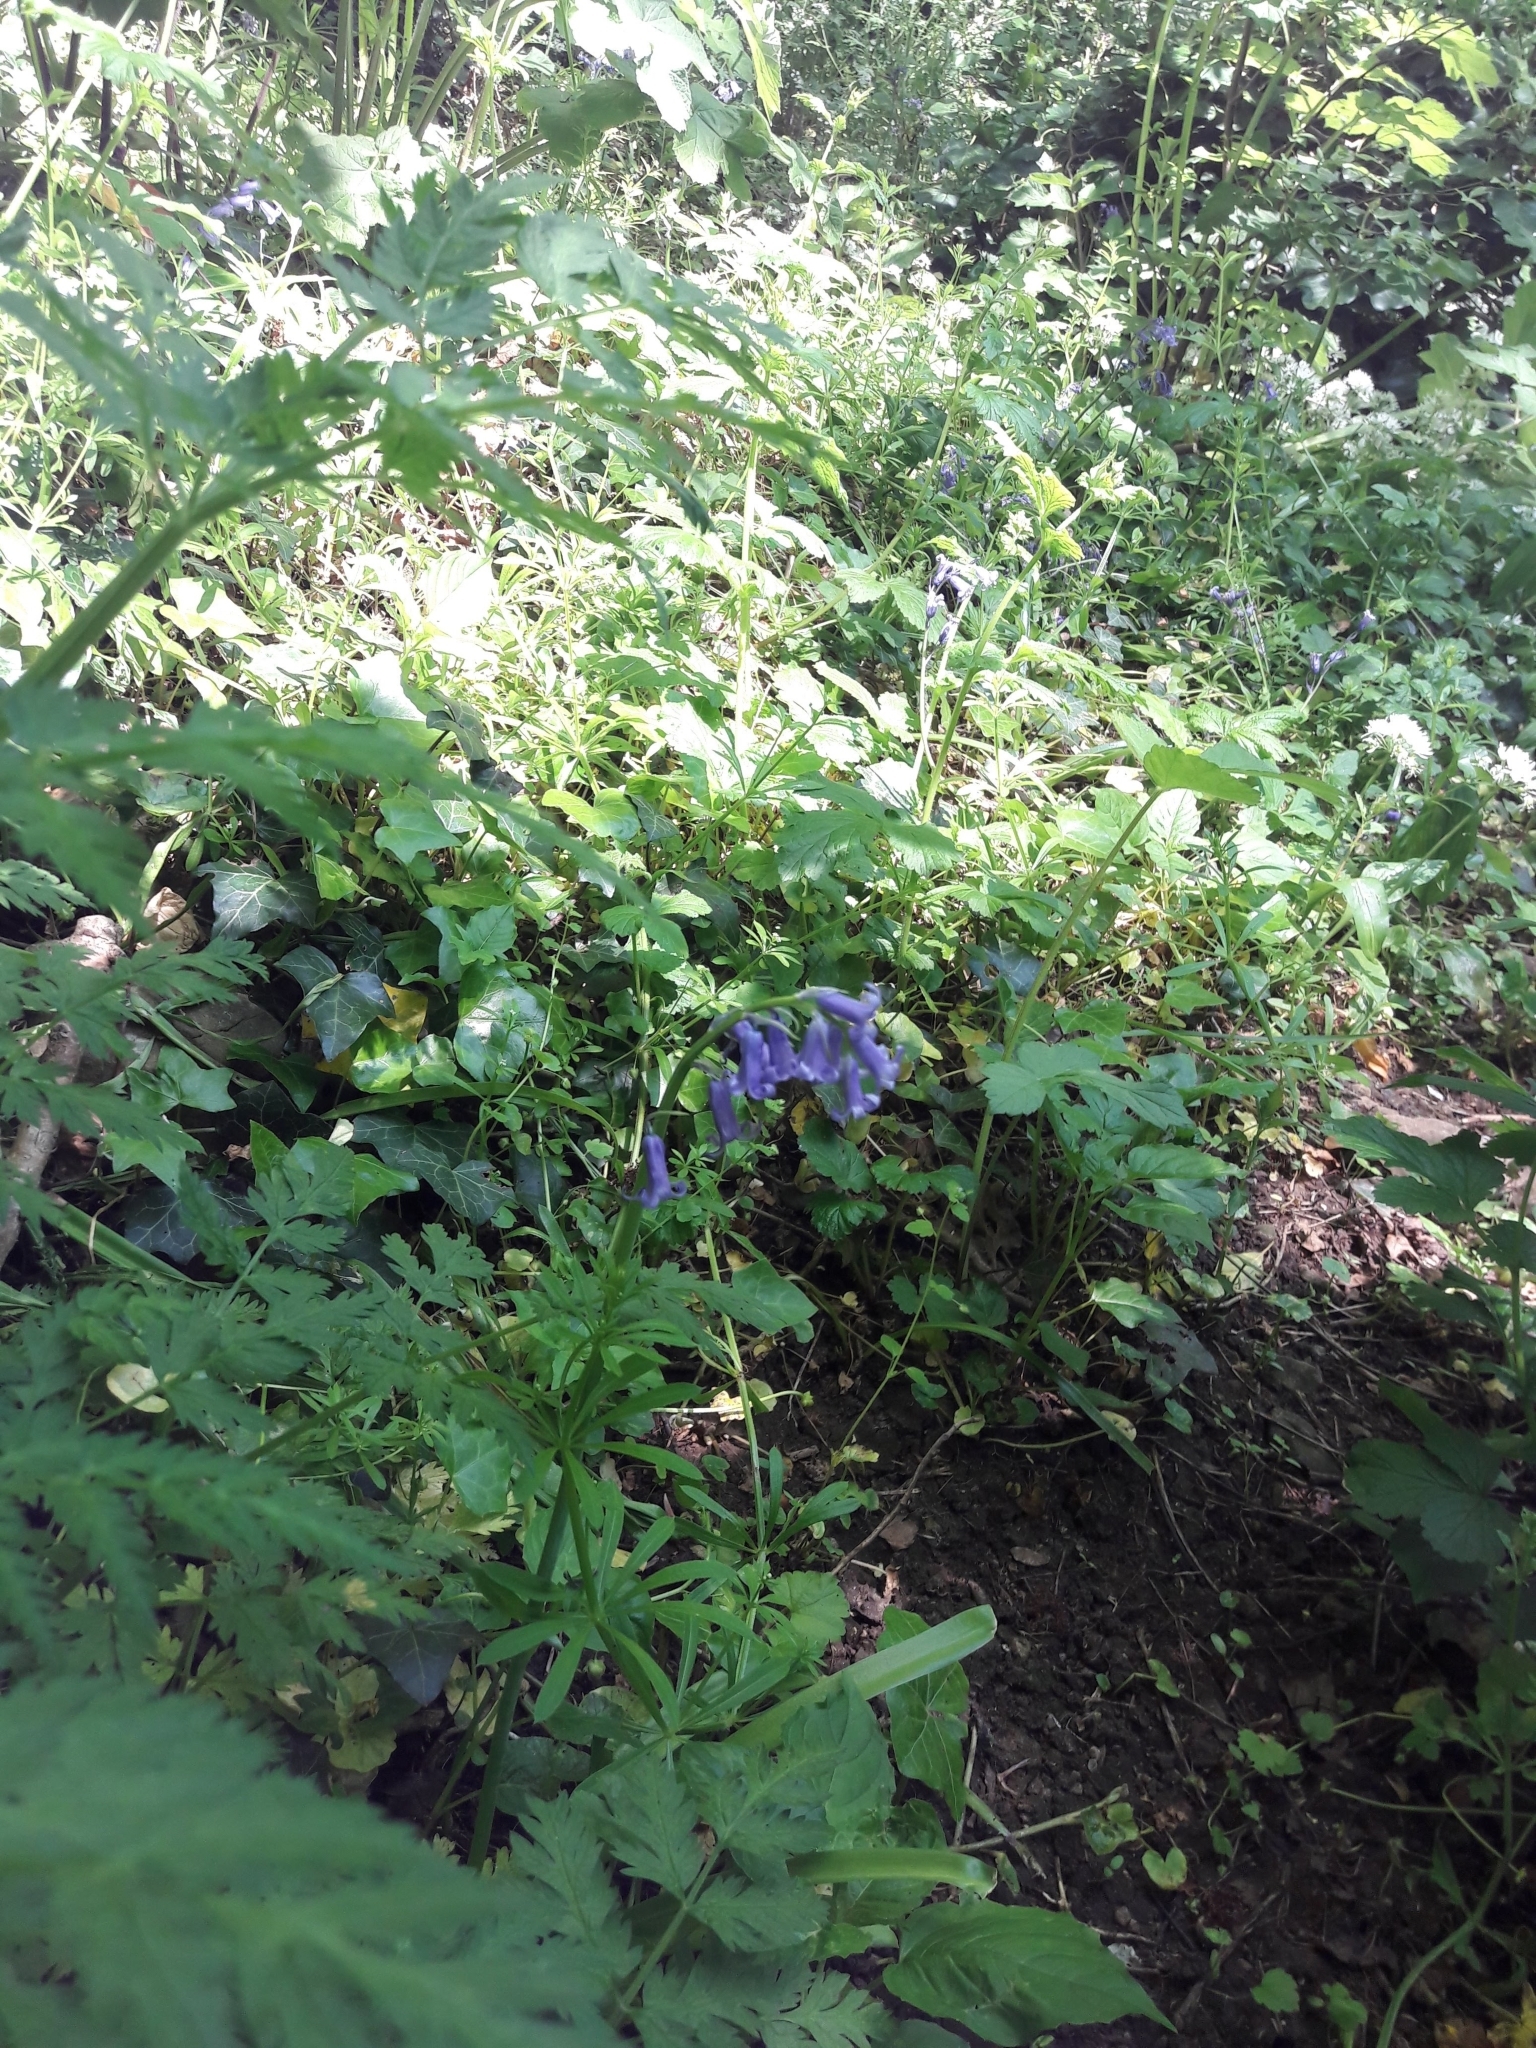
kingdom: Plantae
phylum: Tracheophyta
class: Liliopsida
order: Asparagales
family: Asparagaceae
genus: Hyacinthoides
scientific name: Hyacinthoides non-scripta
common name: Bluebell
